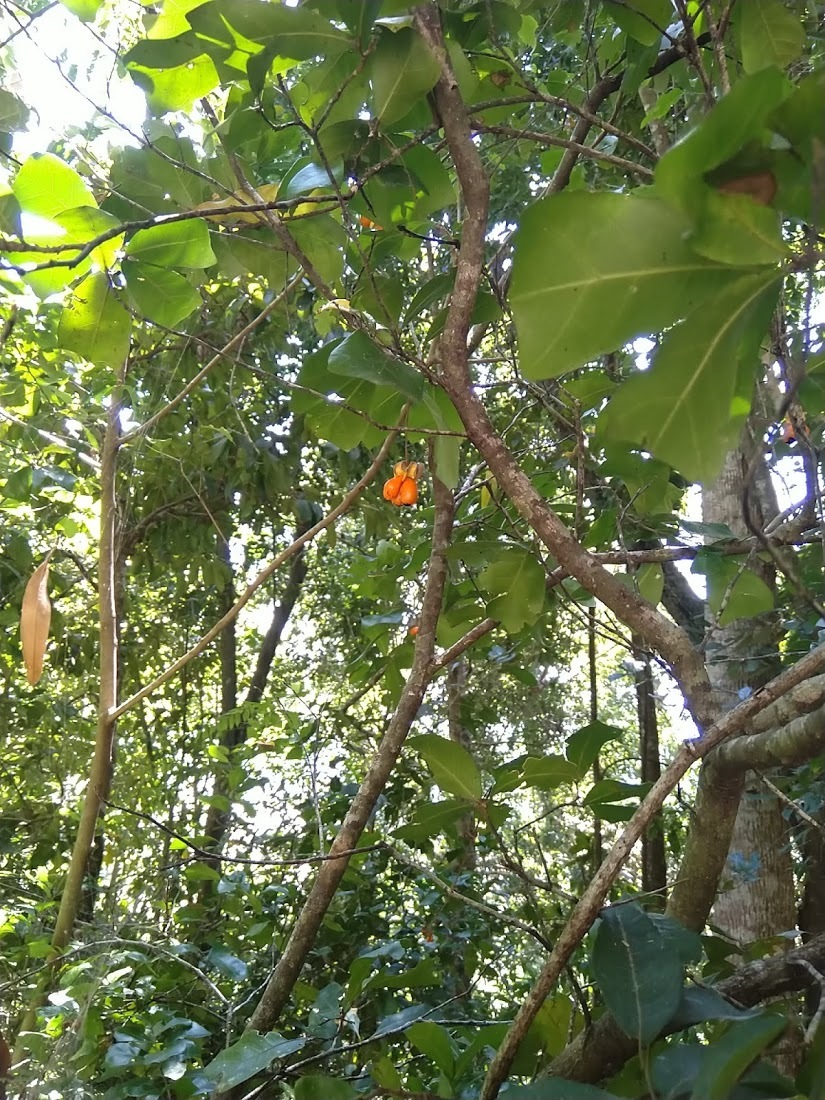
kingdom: Plantae
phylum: Tracheophyta
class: Magnoliopsida
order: Sapindales
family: Sapindaceae
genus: Cupaniopsis
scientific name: Cupaniopsis wadsworthii
